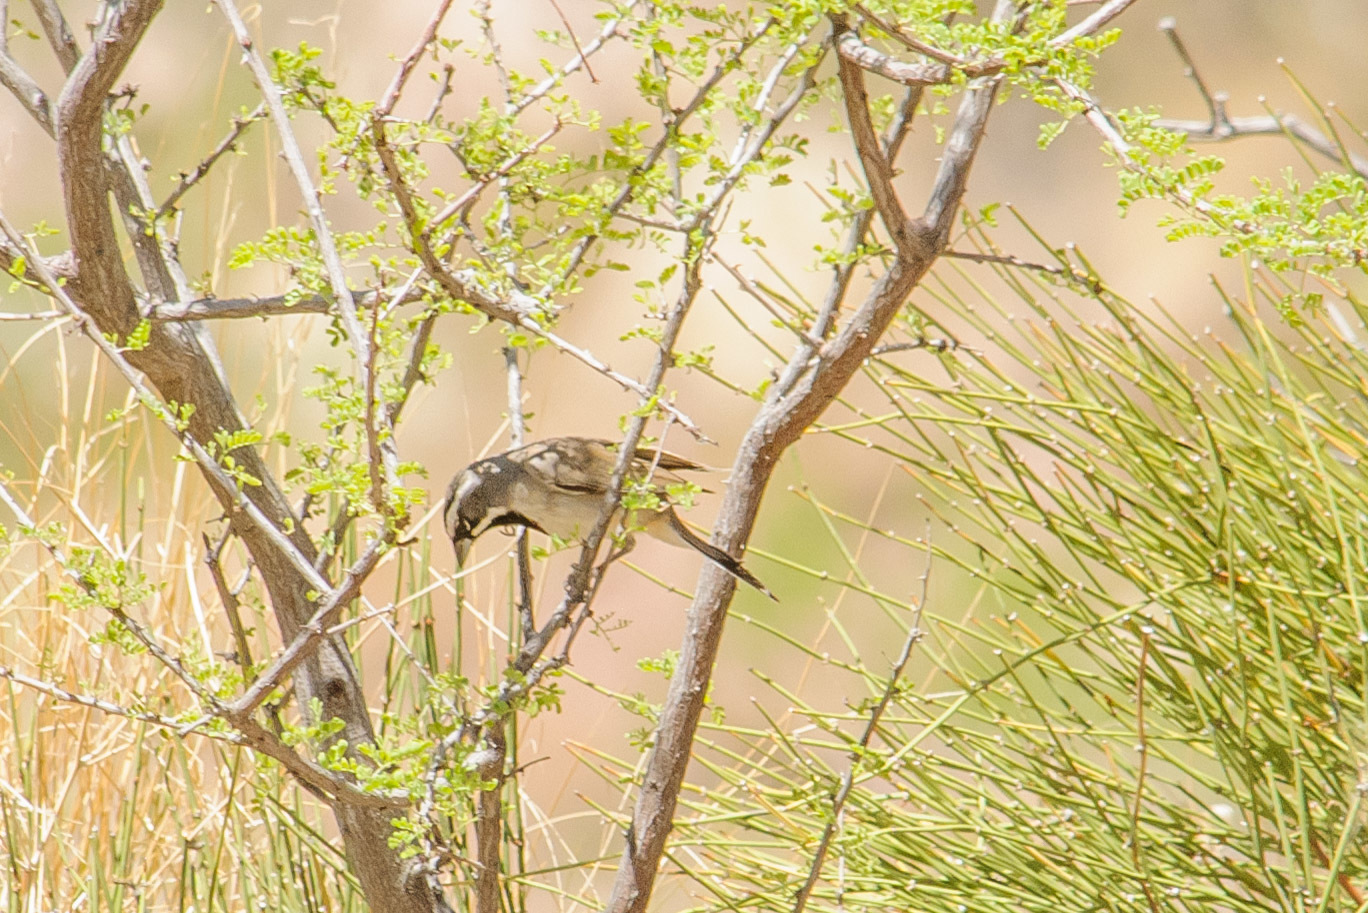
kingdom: Animalia
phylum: Chordata
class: Aves
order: Passeriformes
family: Passerellidae
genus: Amphispiza
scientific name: Amphispiza bilineata
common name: Black-throated sparrow
